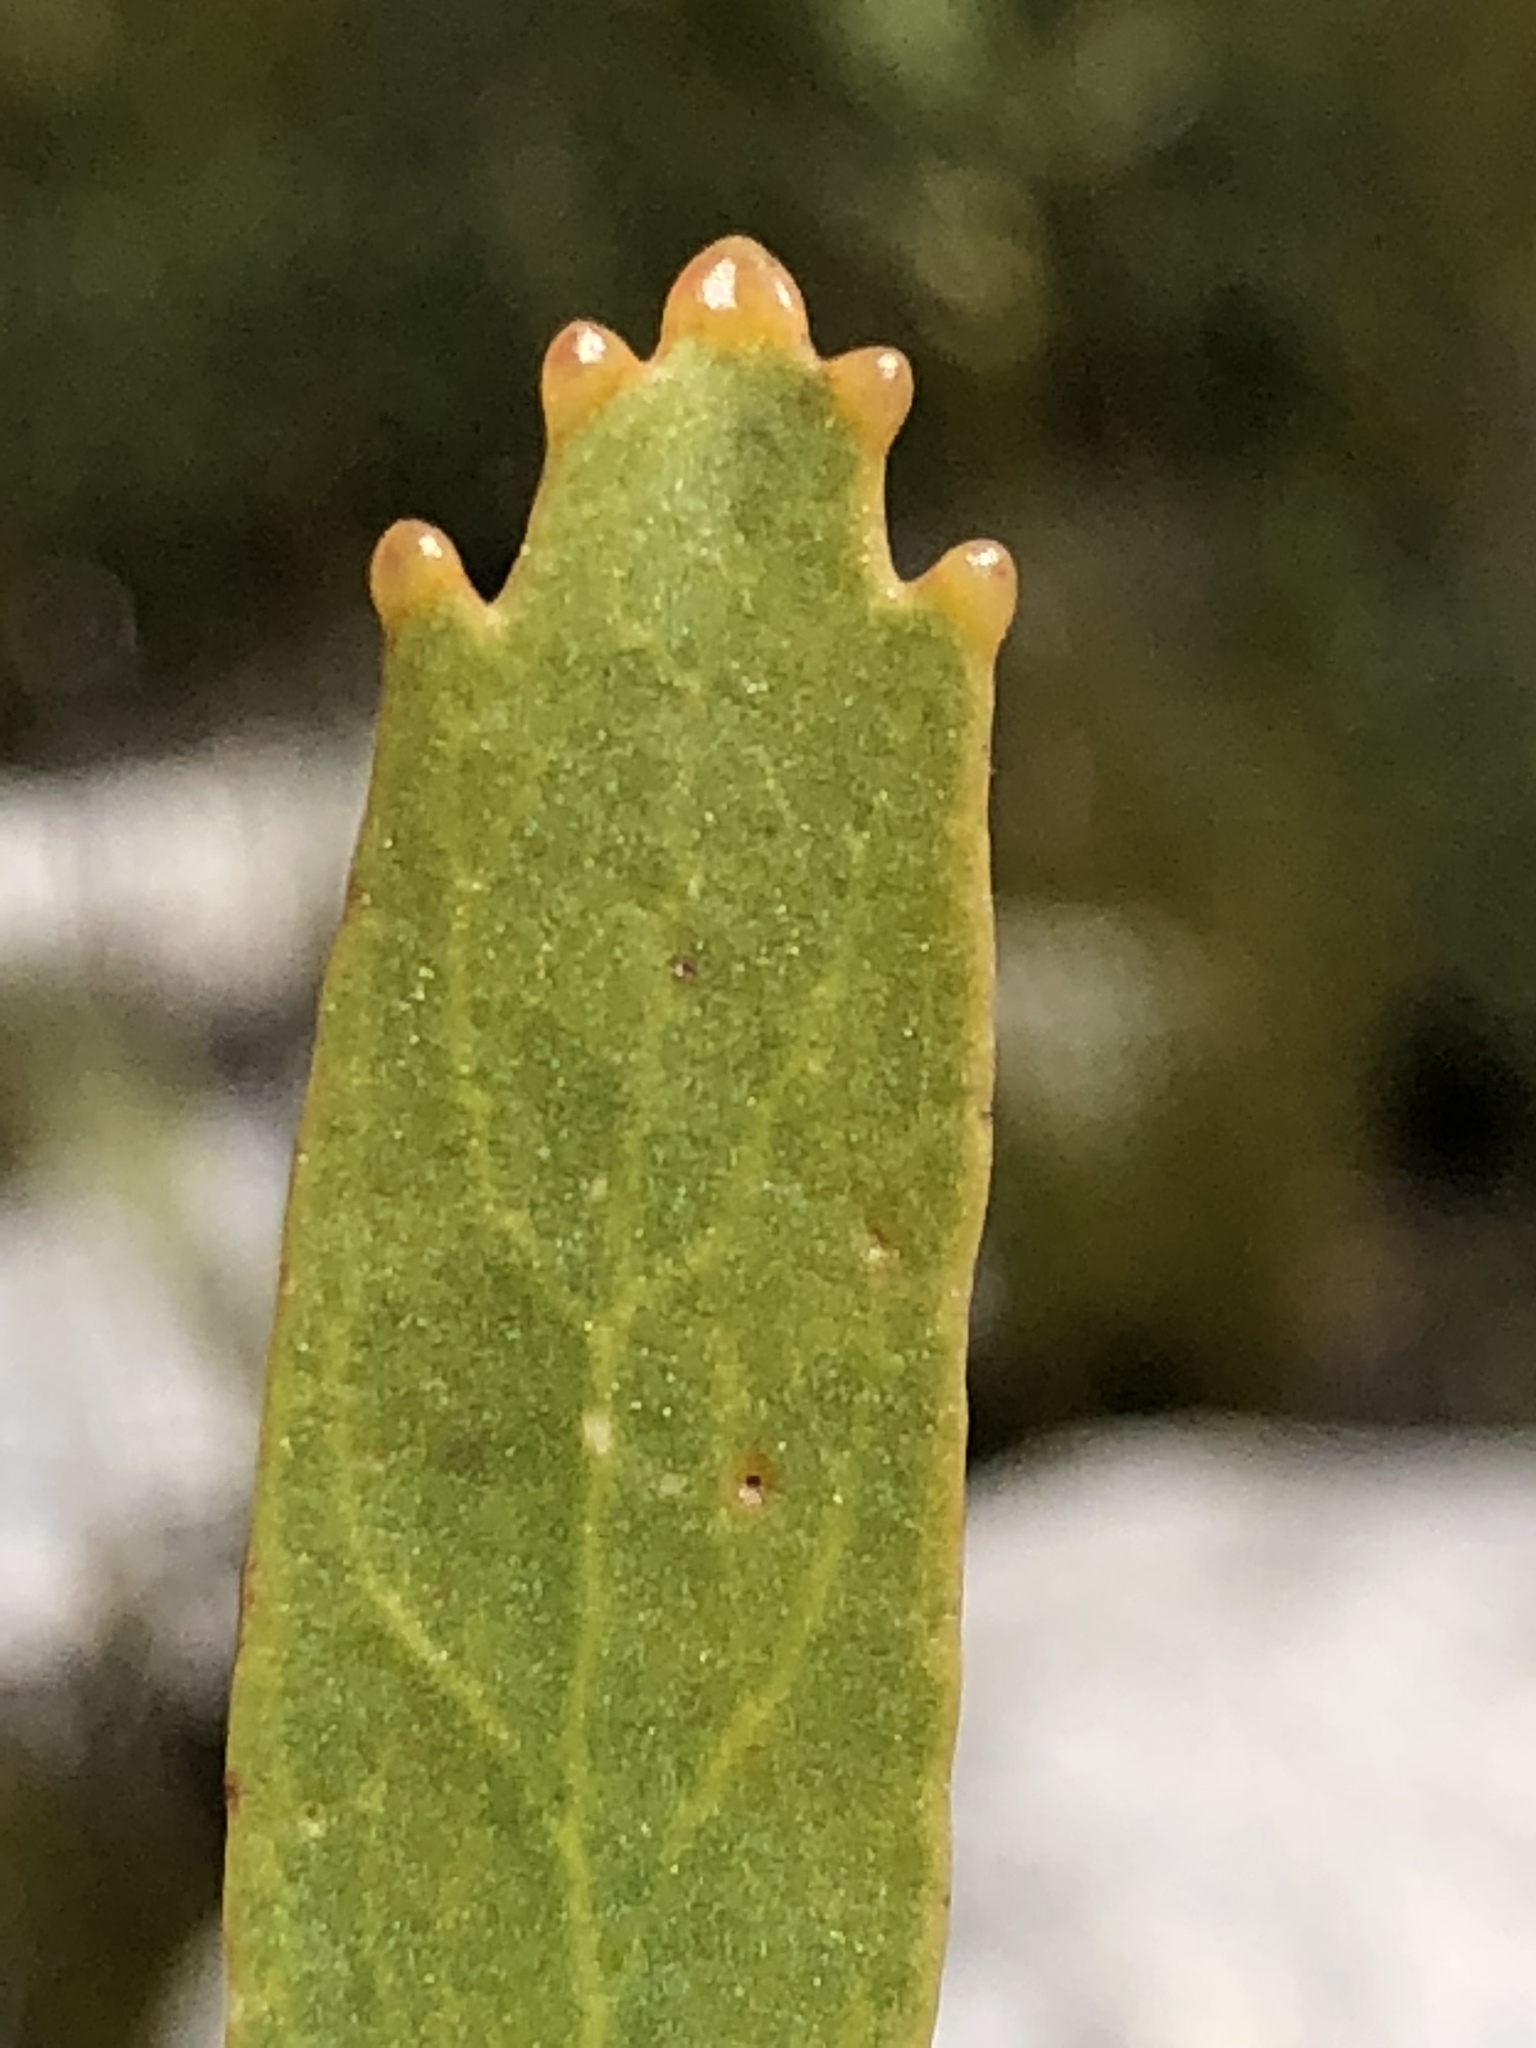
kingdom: Plantae
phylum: Tracheophyta
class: Magnoliopsida
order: Proteales
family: Proteaceae
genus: Leucospermum
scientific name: Leucospermum cuneiforme
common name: Common pincushion
